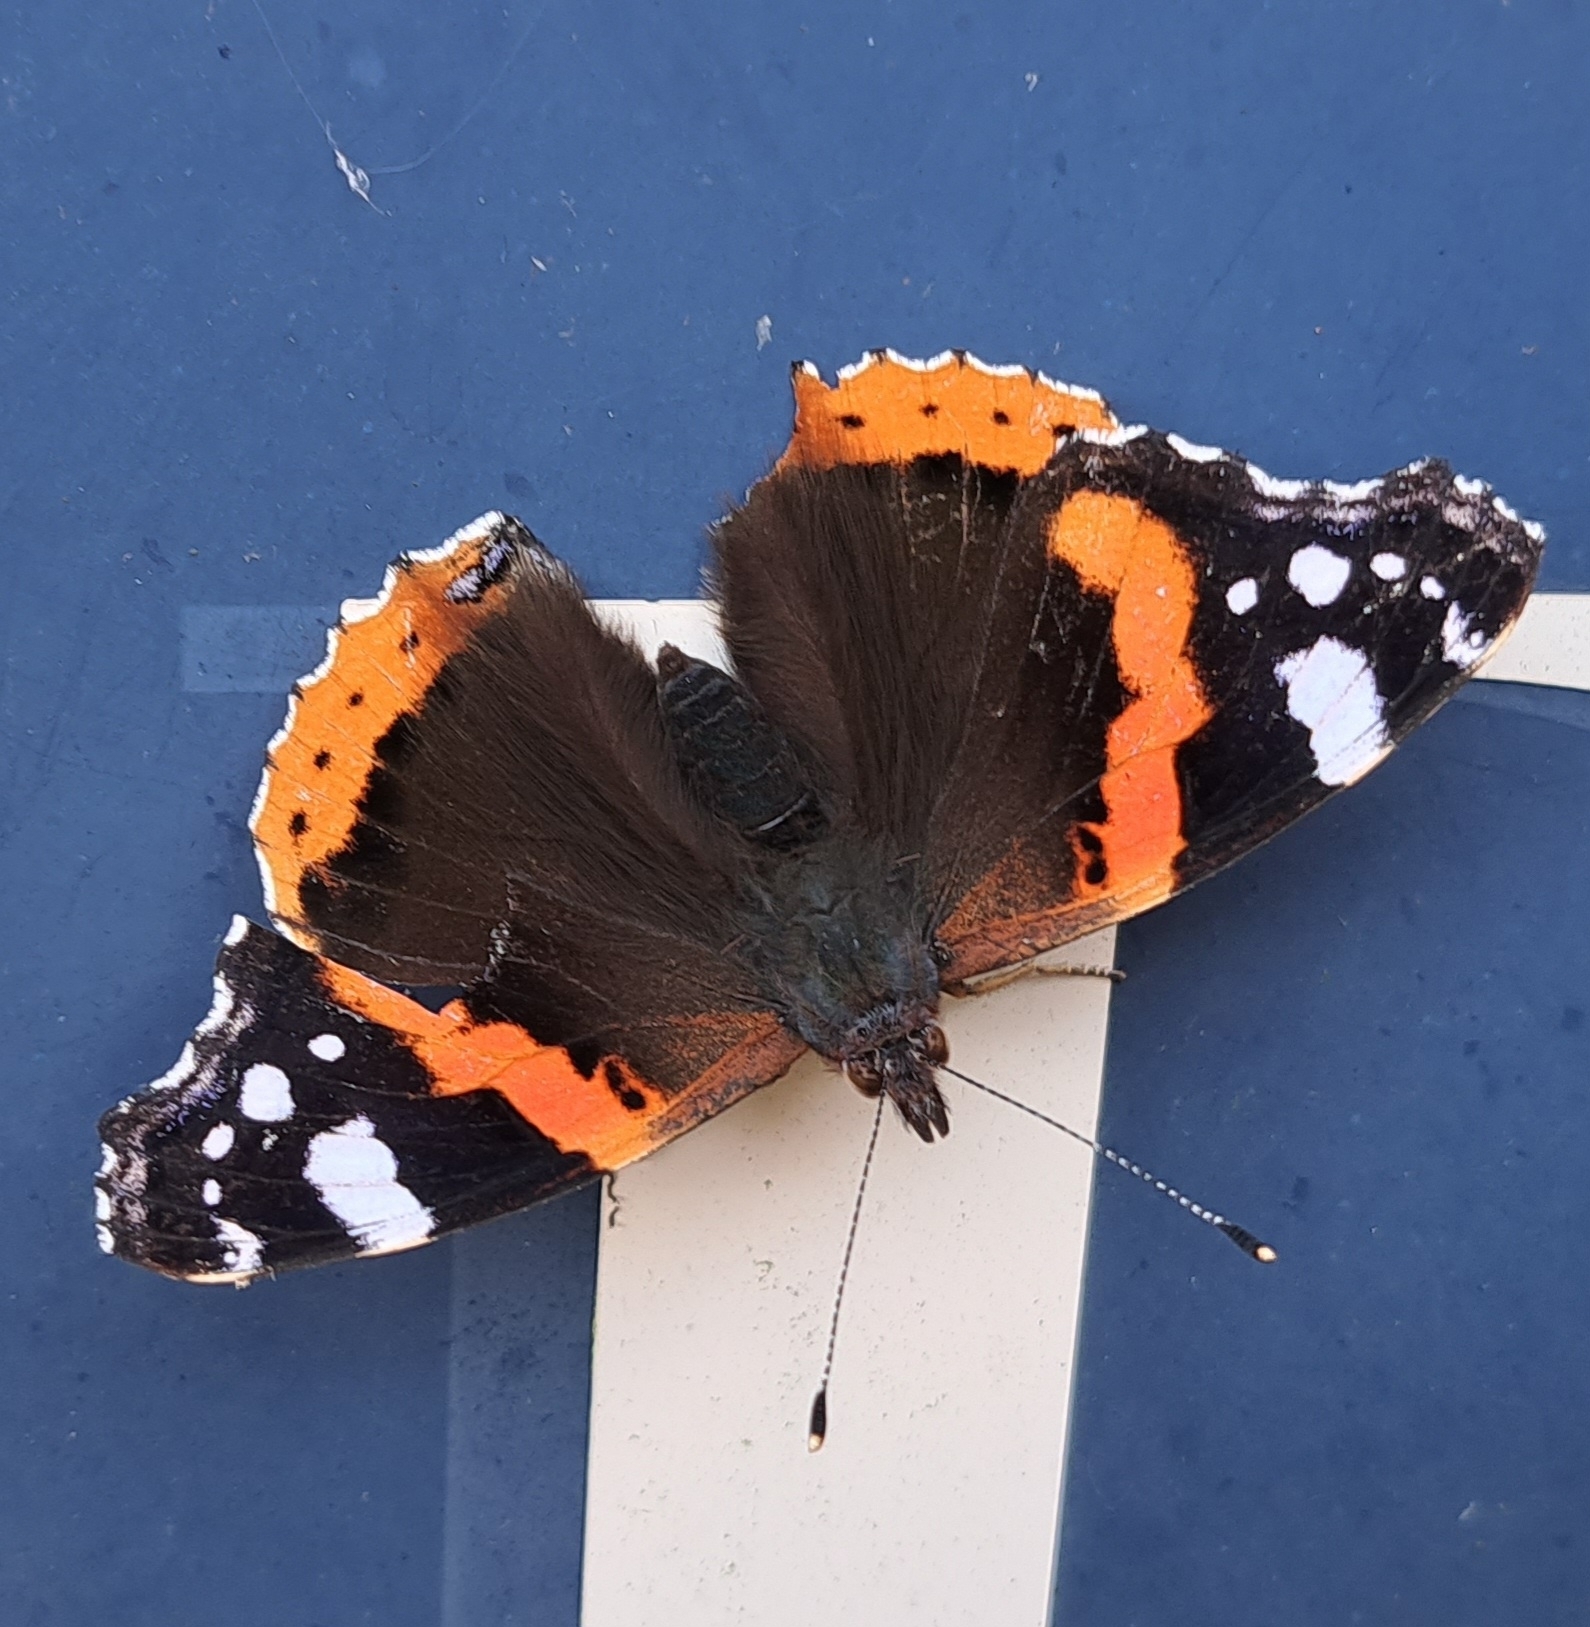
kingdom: Animalia
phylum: Arthropoda
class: Insecta
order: Lepidoptera
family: Nymphalidae
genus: Vanessa
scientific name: Vanessa atalanta
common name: Red admiral
